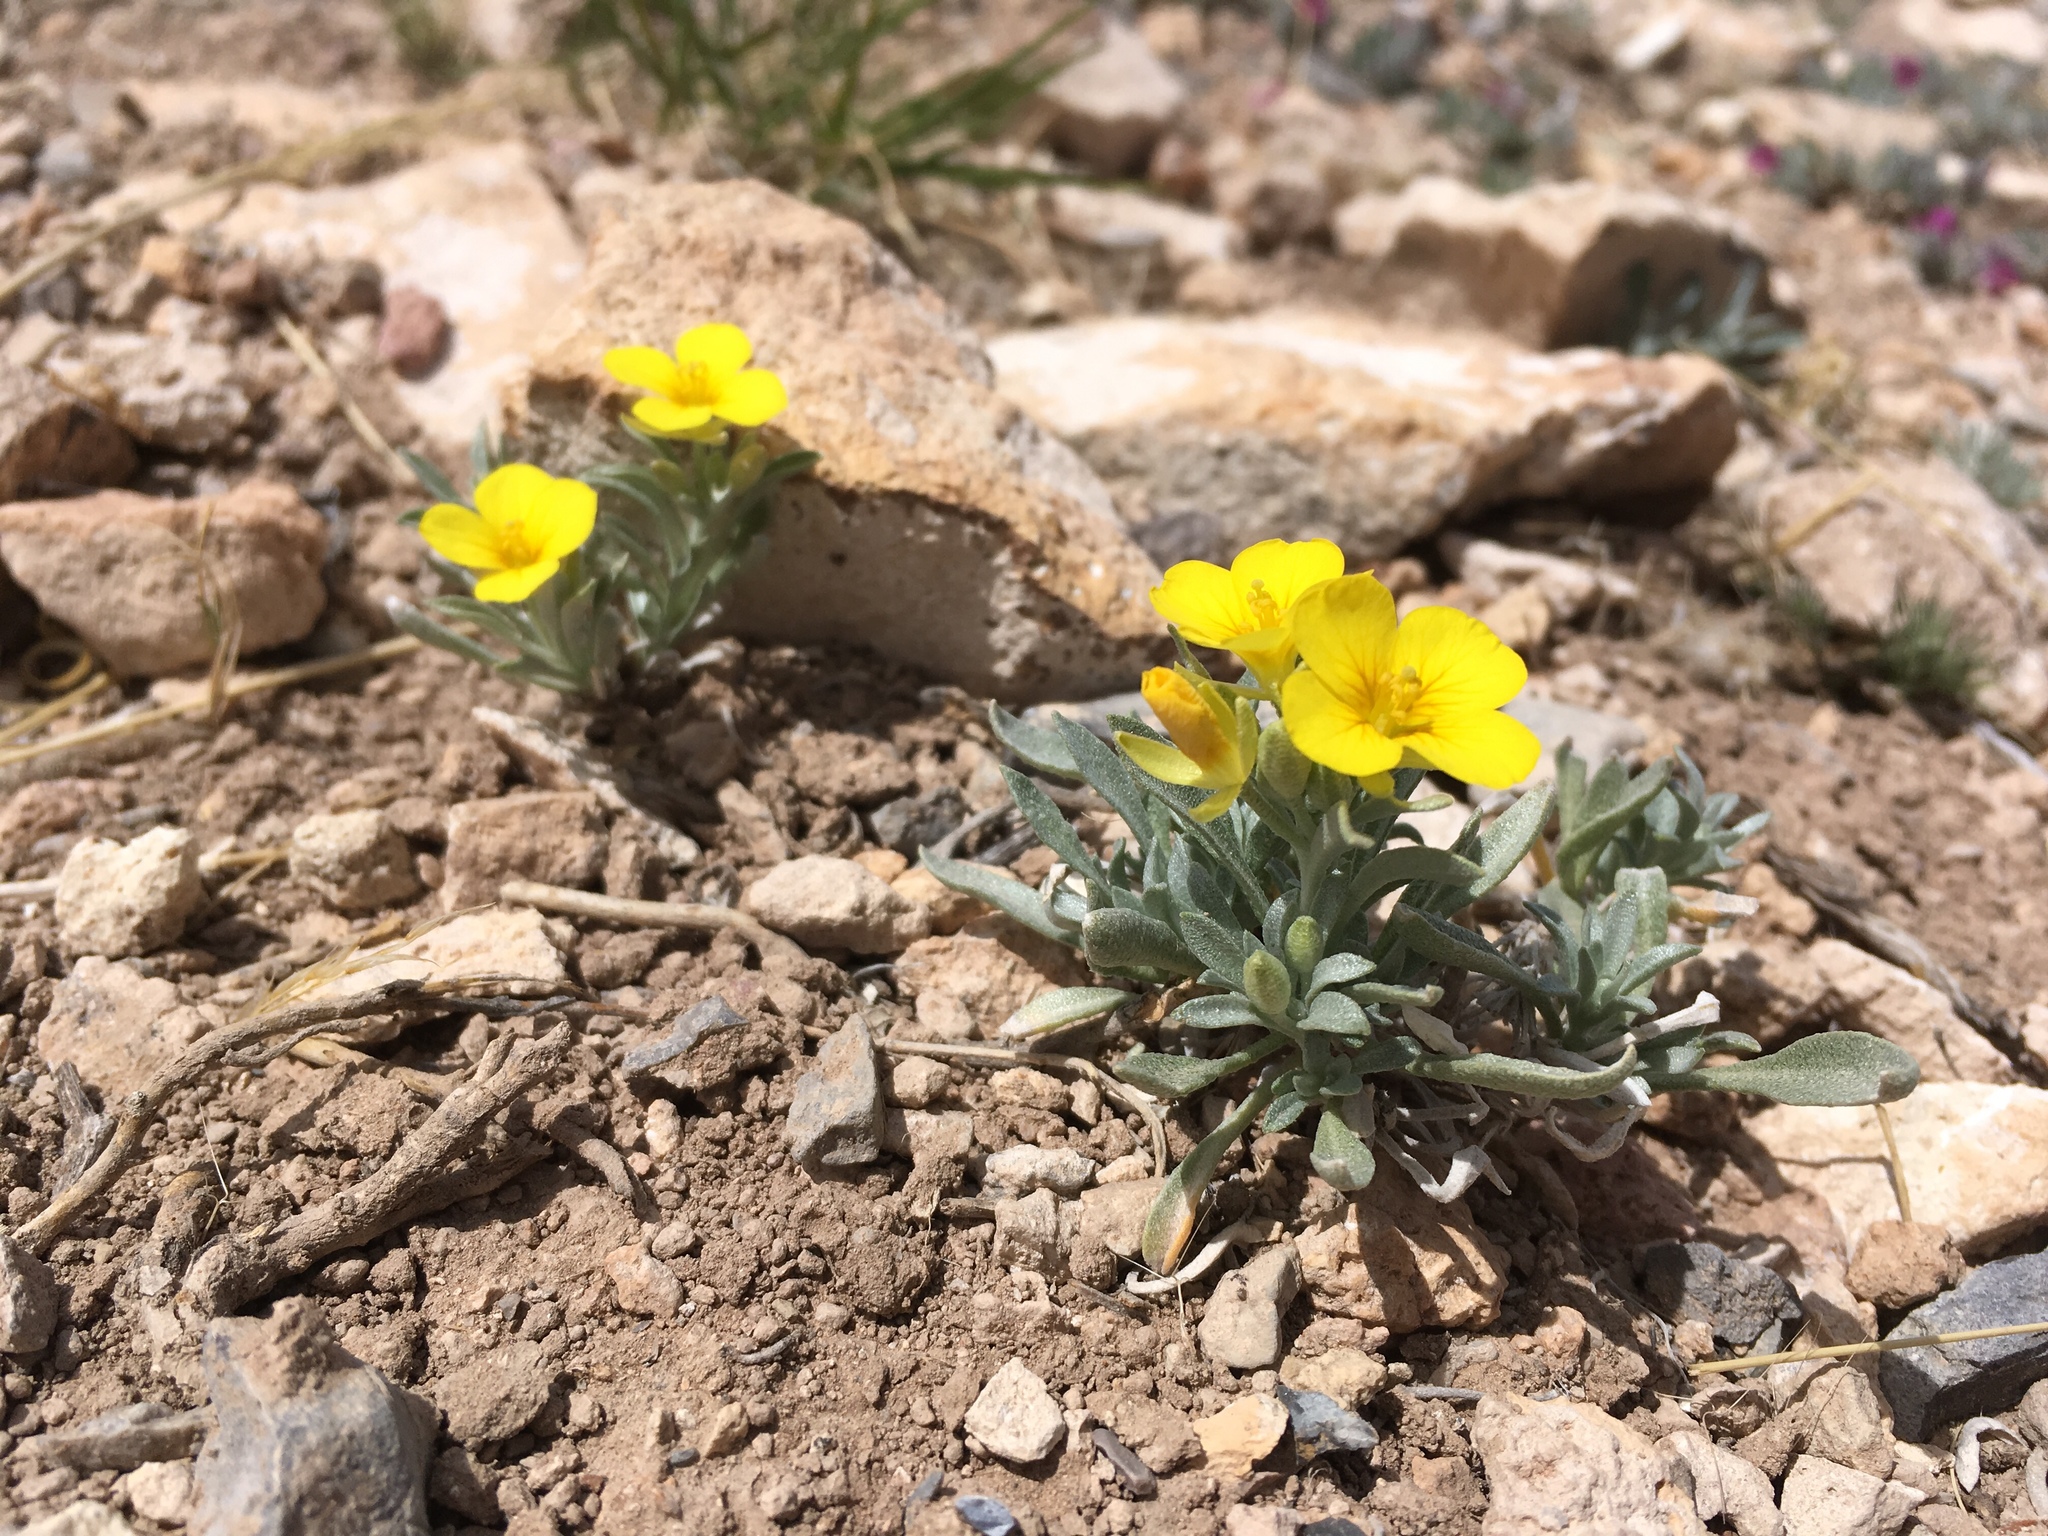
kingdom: Plantae
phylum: Tracheophyta
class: Magnoliopsida
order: Brassicales
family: Brassicaceae
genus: Physaria
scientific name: Physaria fendleri
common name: Fendler's bladderpod
